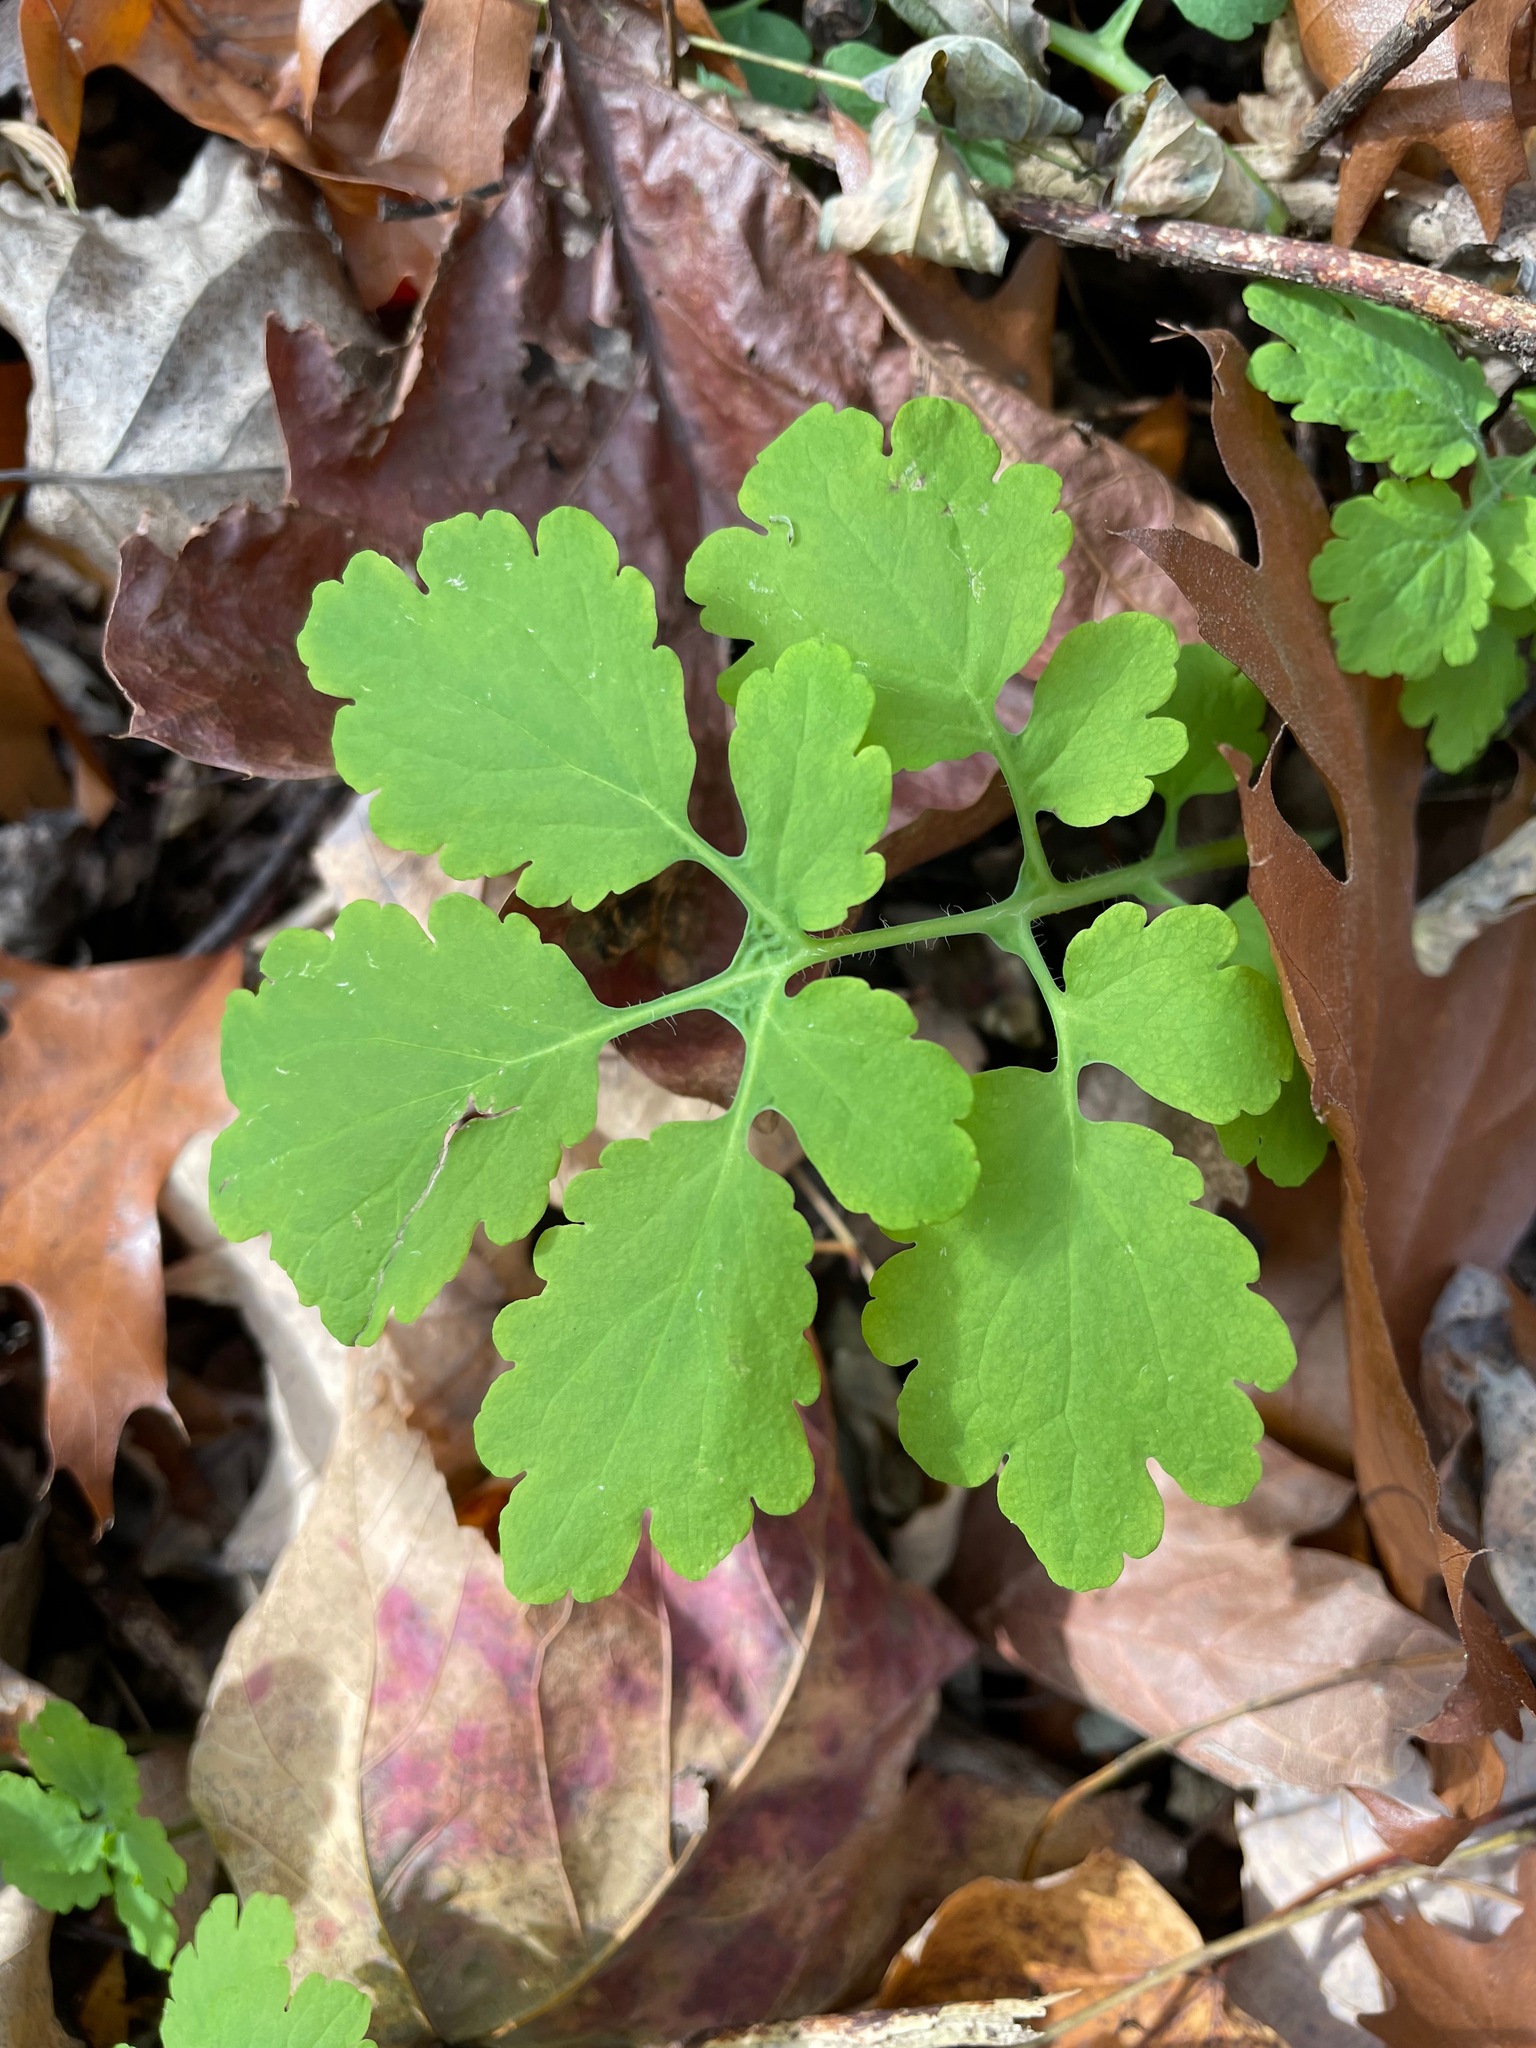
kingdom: Plantae
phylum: Tracheophyta
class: Magnoliopsida
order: Ranunculales
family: Papaveraceae
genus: Chelidonium
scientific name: Chelidonium majus
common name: Greater celandine
